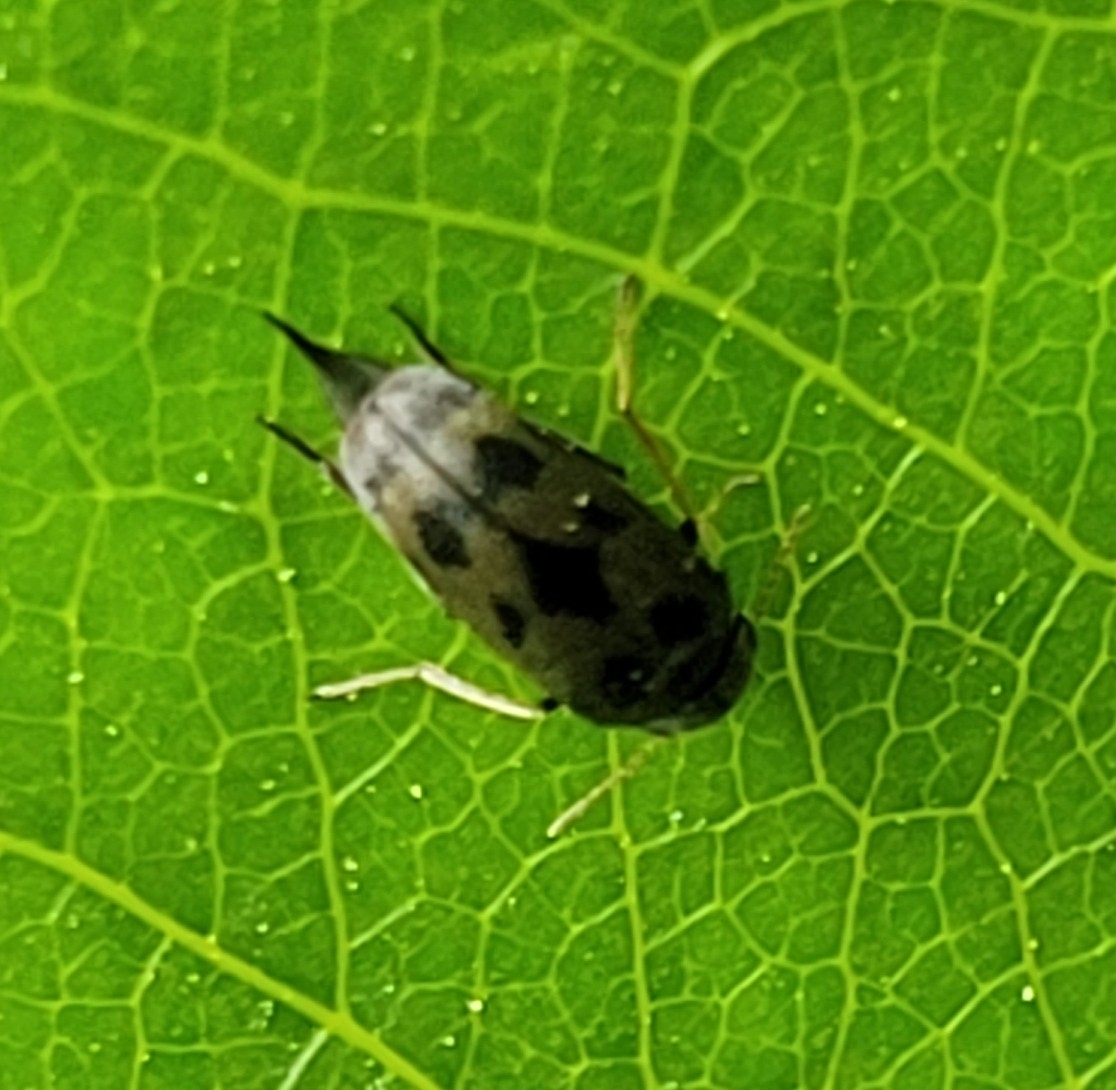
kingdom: Animalia
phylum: Arthropoda
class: Insecta
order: Coleoptera
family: Mordellidae
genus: Paramordellaria
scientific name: Paramordellaria triloba
